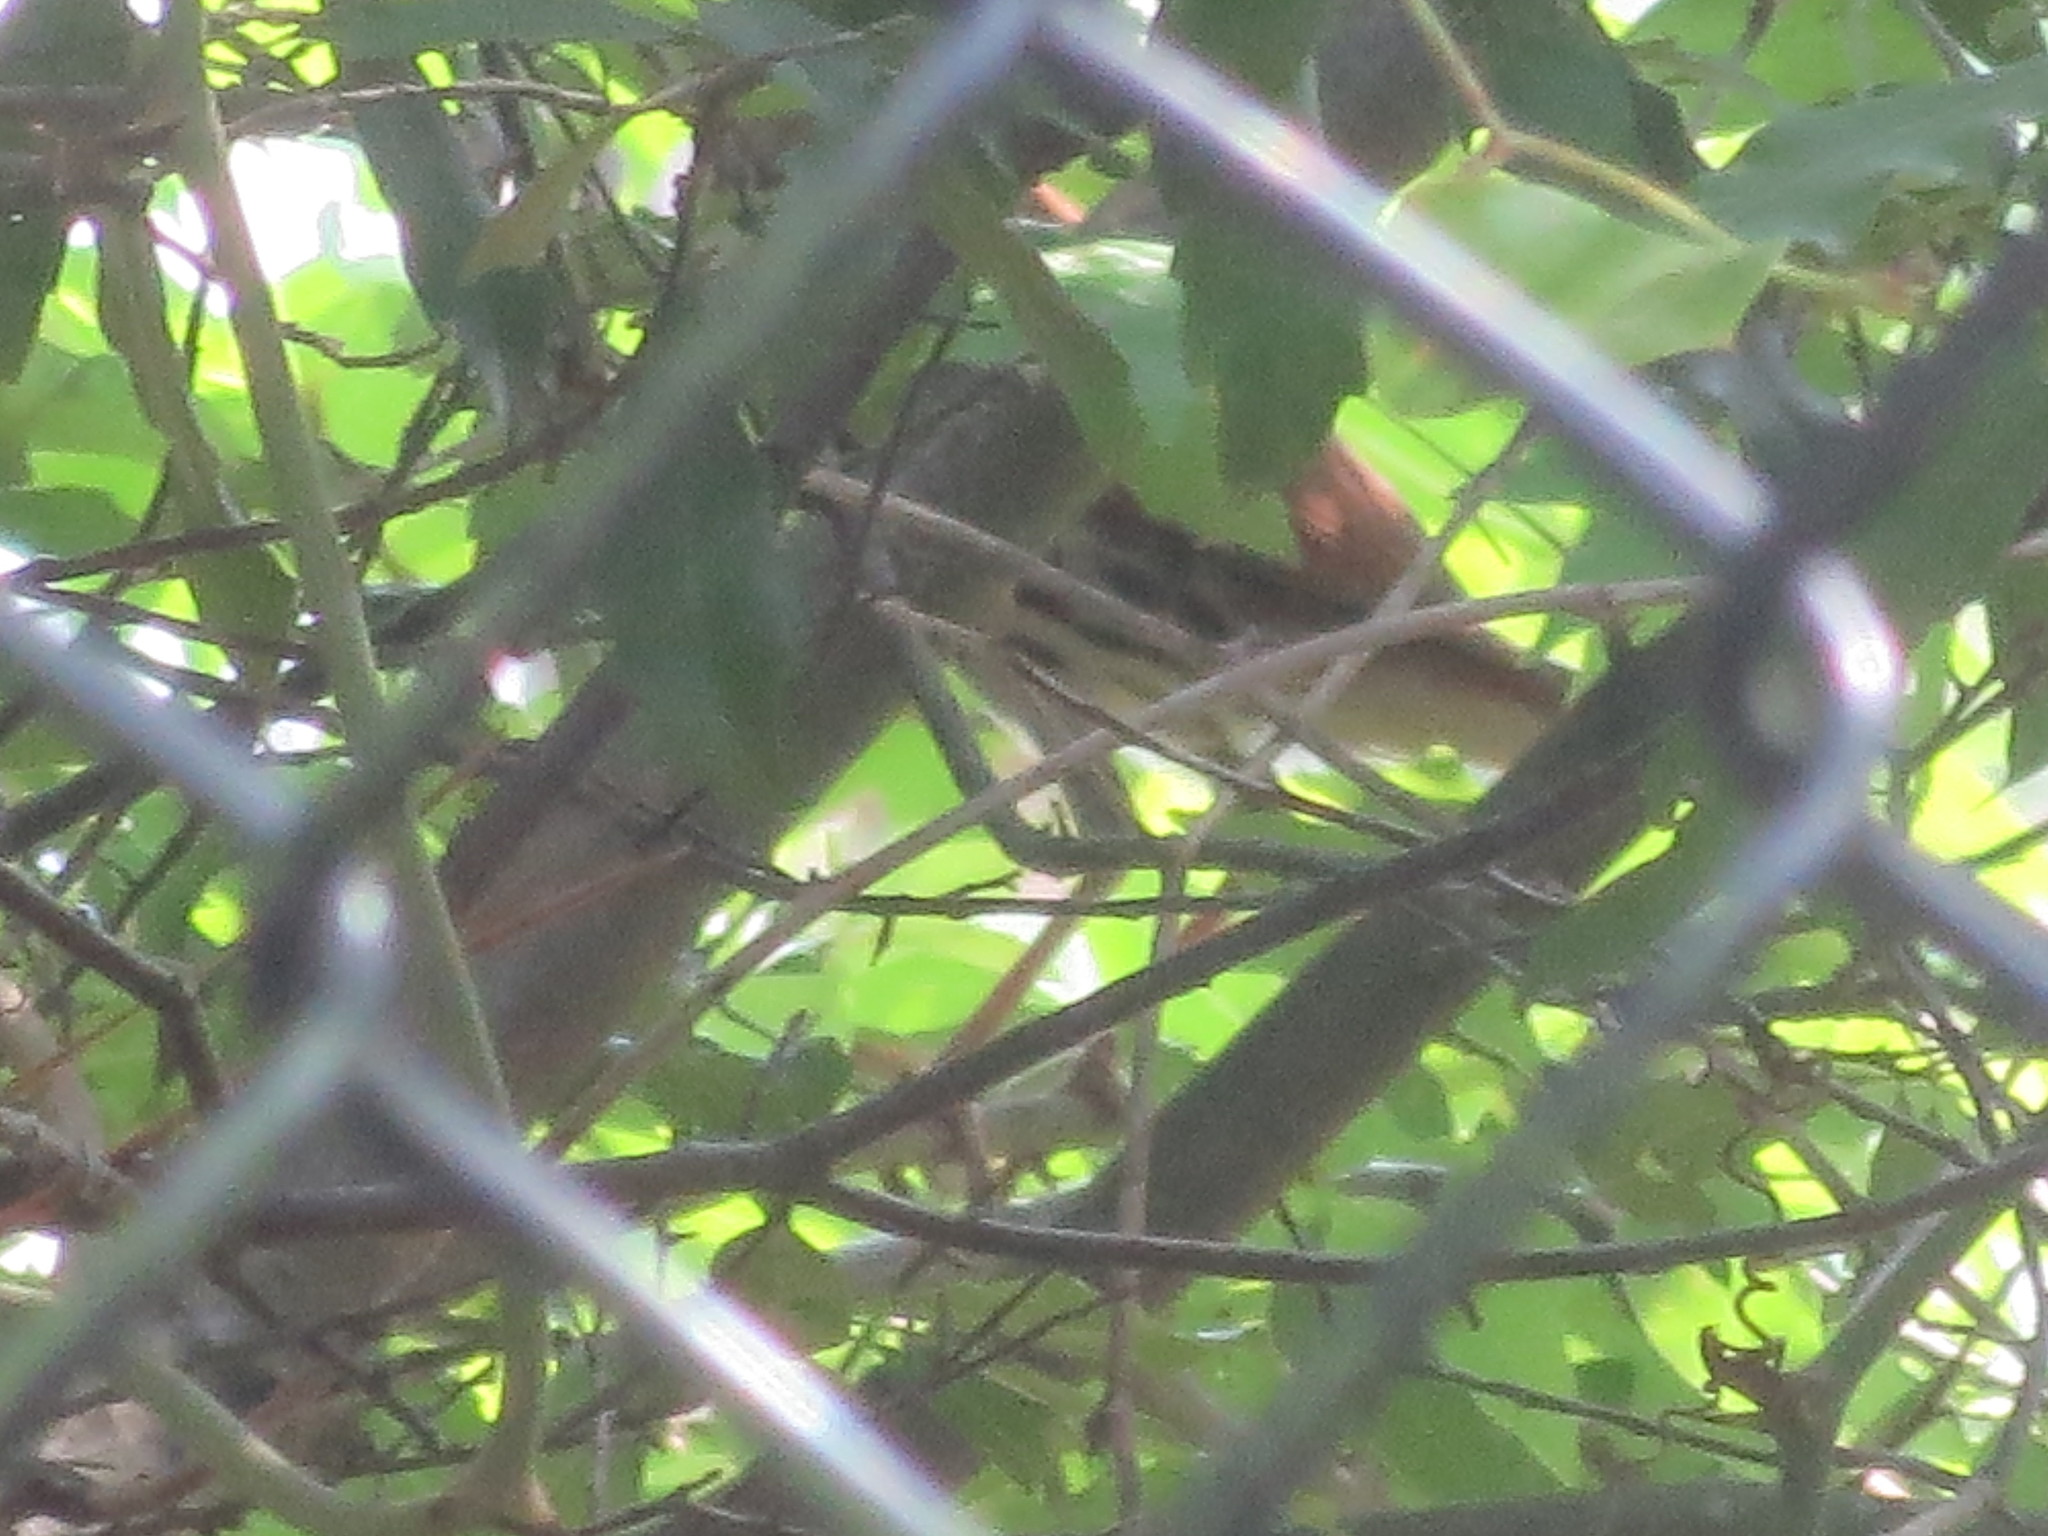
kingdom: Animalia
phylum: Chordata
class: Aves
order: Passeriformes
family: Mimidae
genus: Toxostoma
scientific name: Toxostoma rufum
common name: Brown thrasher
